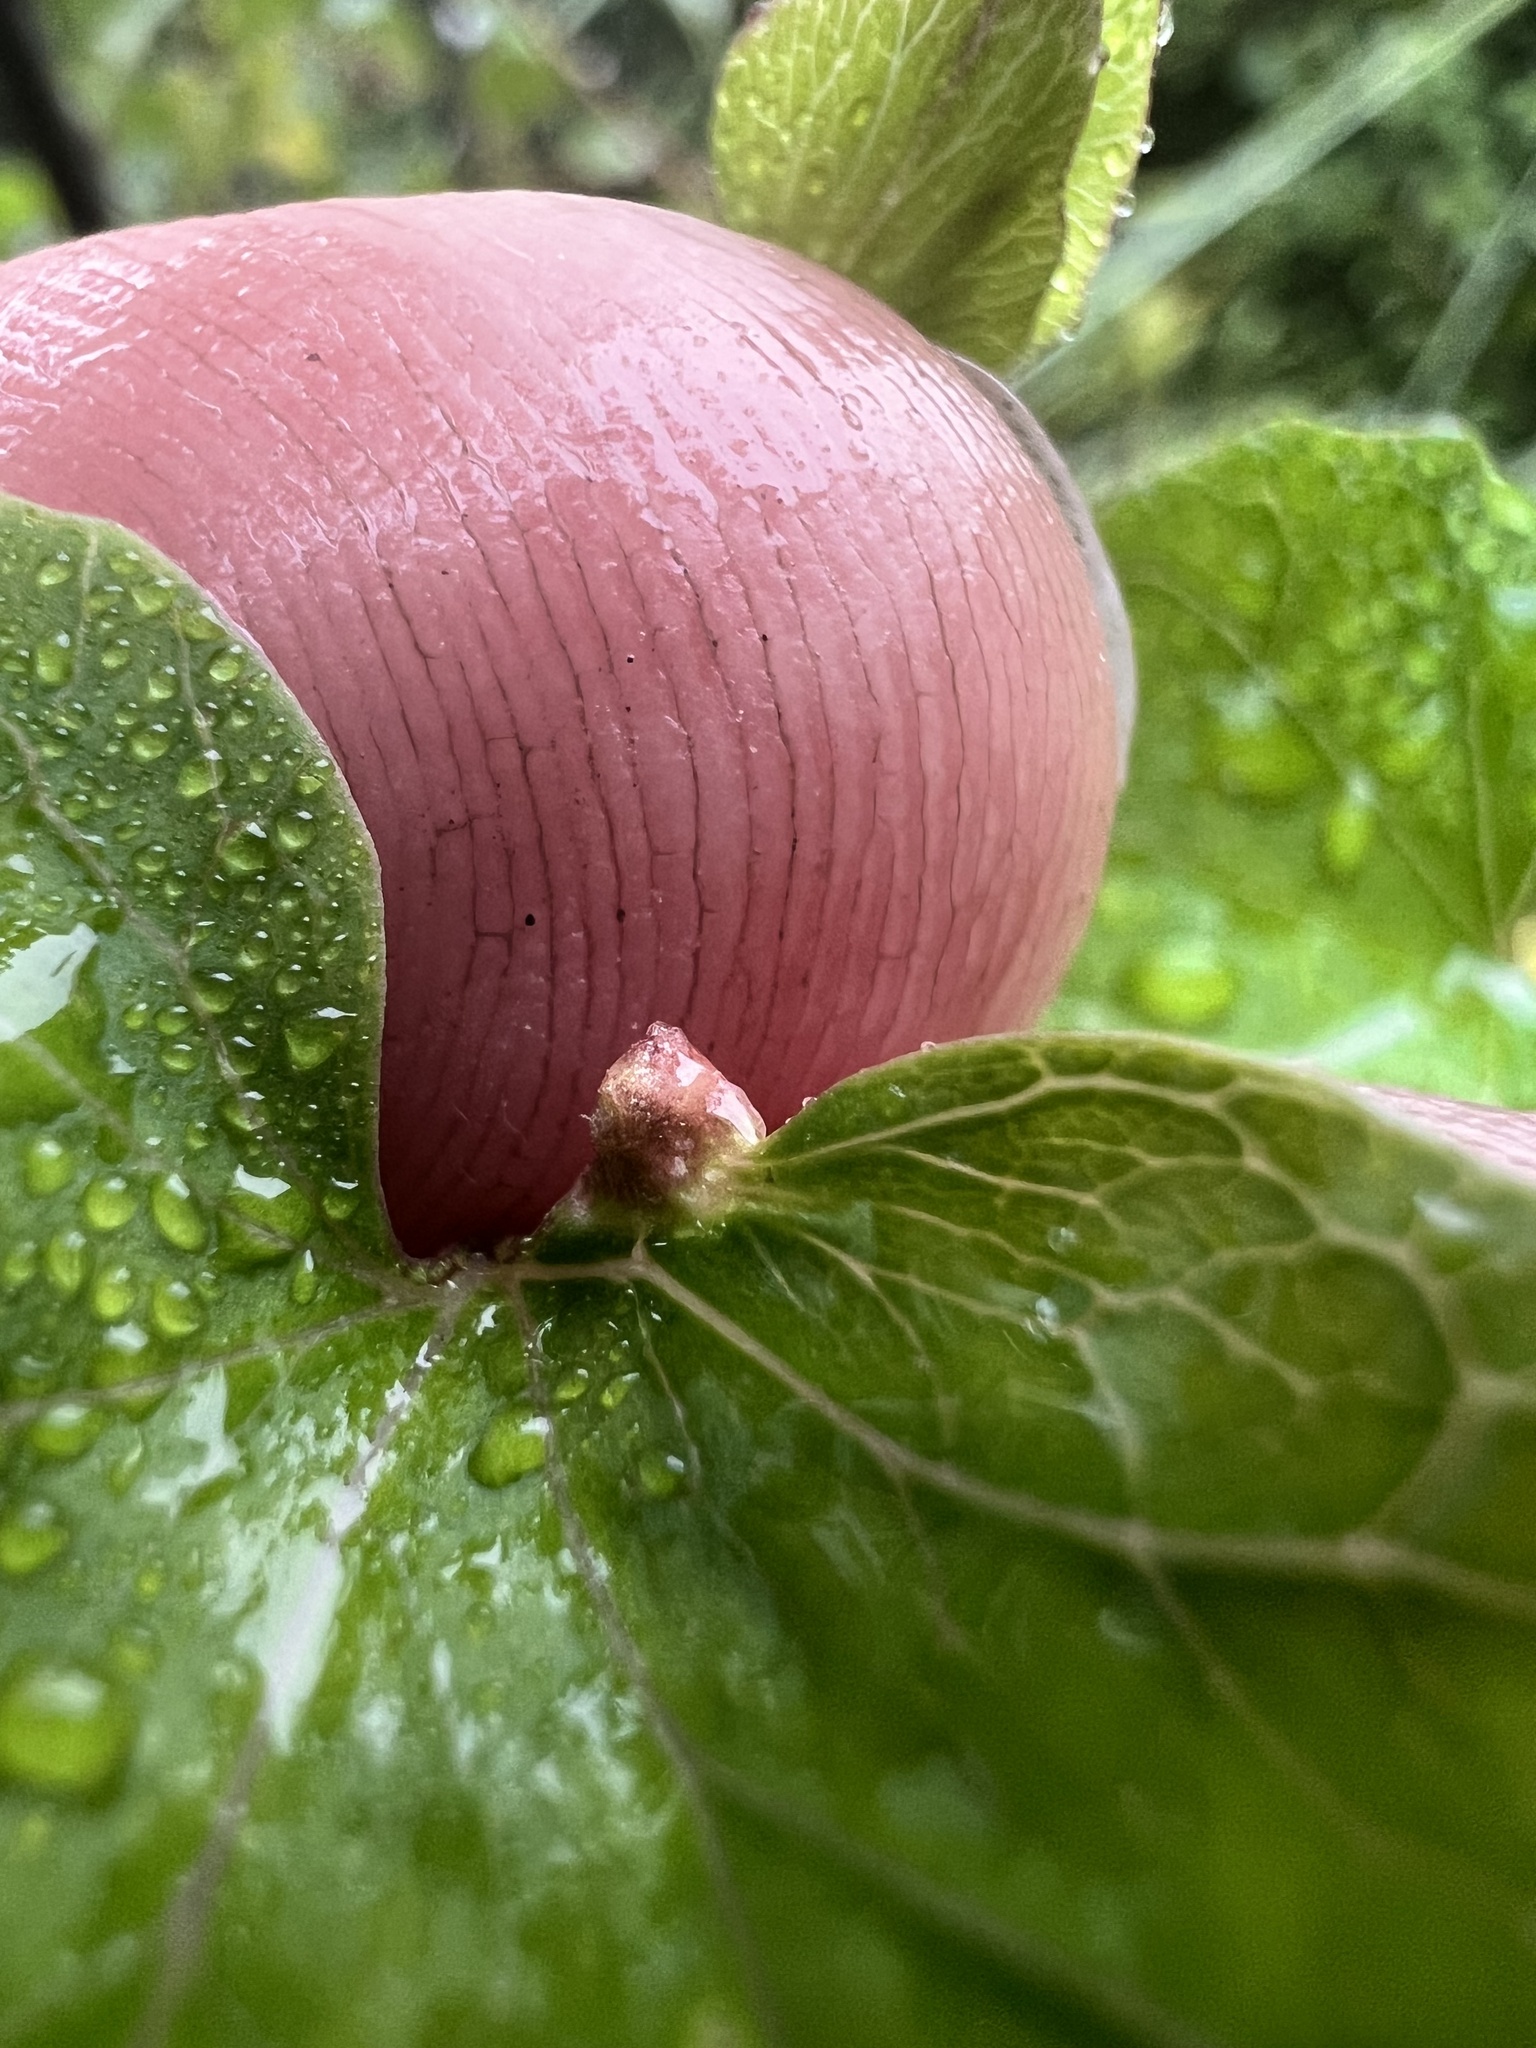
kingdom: Animalia
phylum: Arthropoda
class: Arachnida
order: Trombidiformes
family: Eriophyidae
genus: Aceria
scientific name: Aceria
